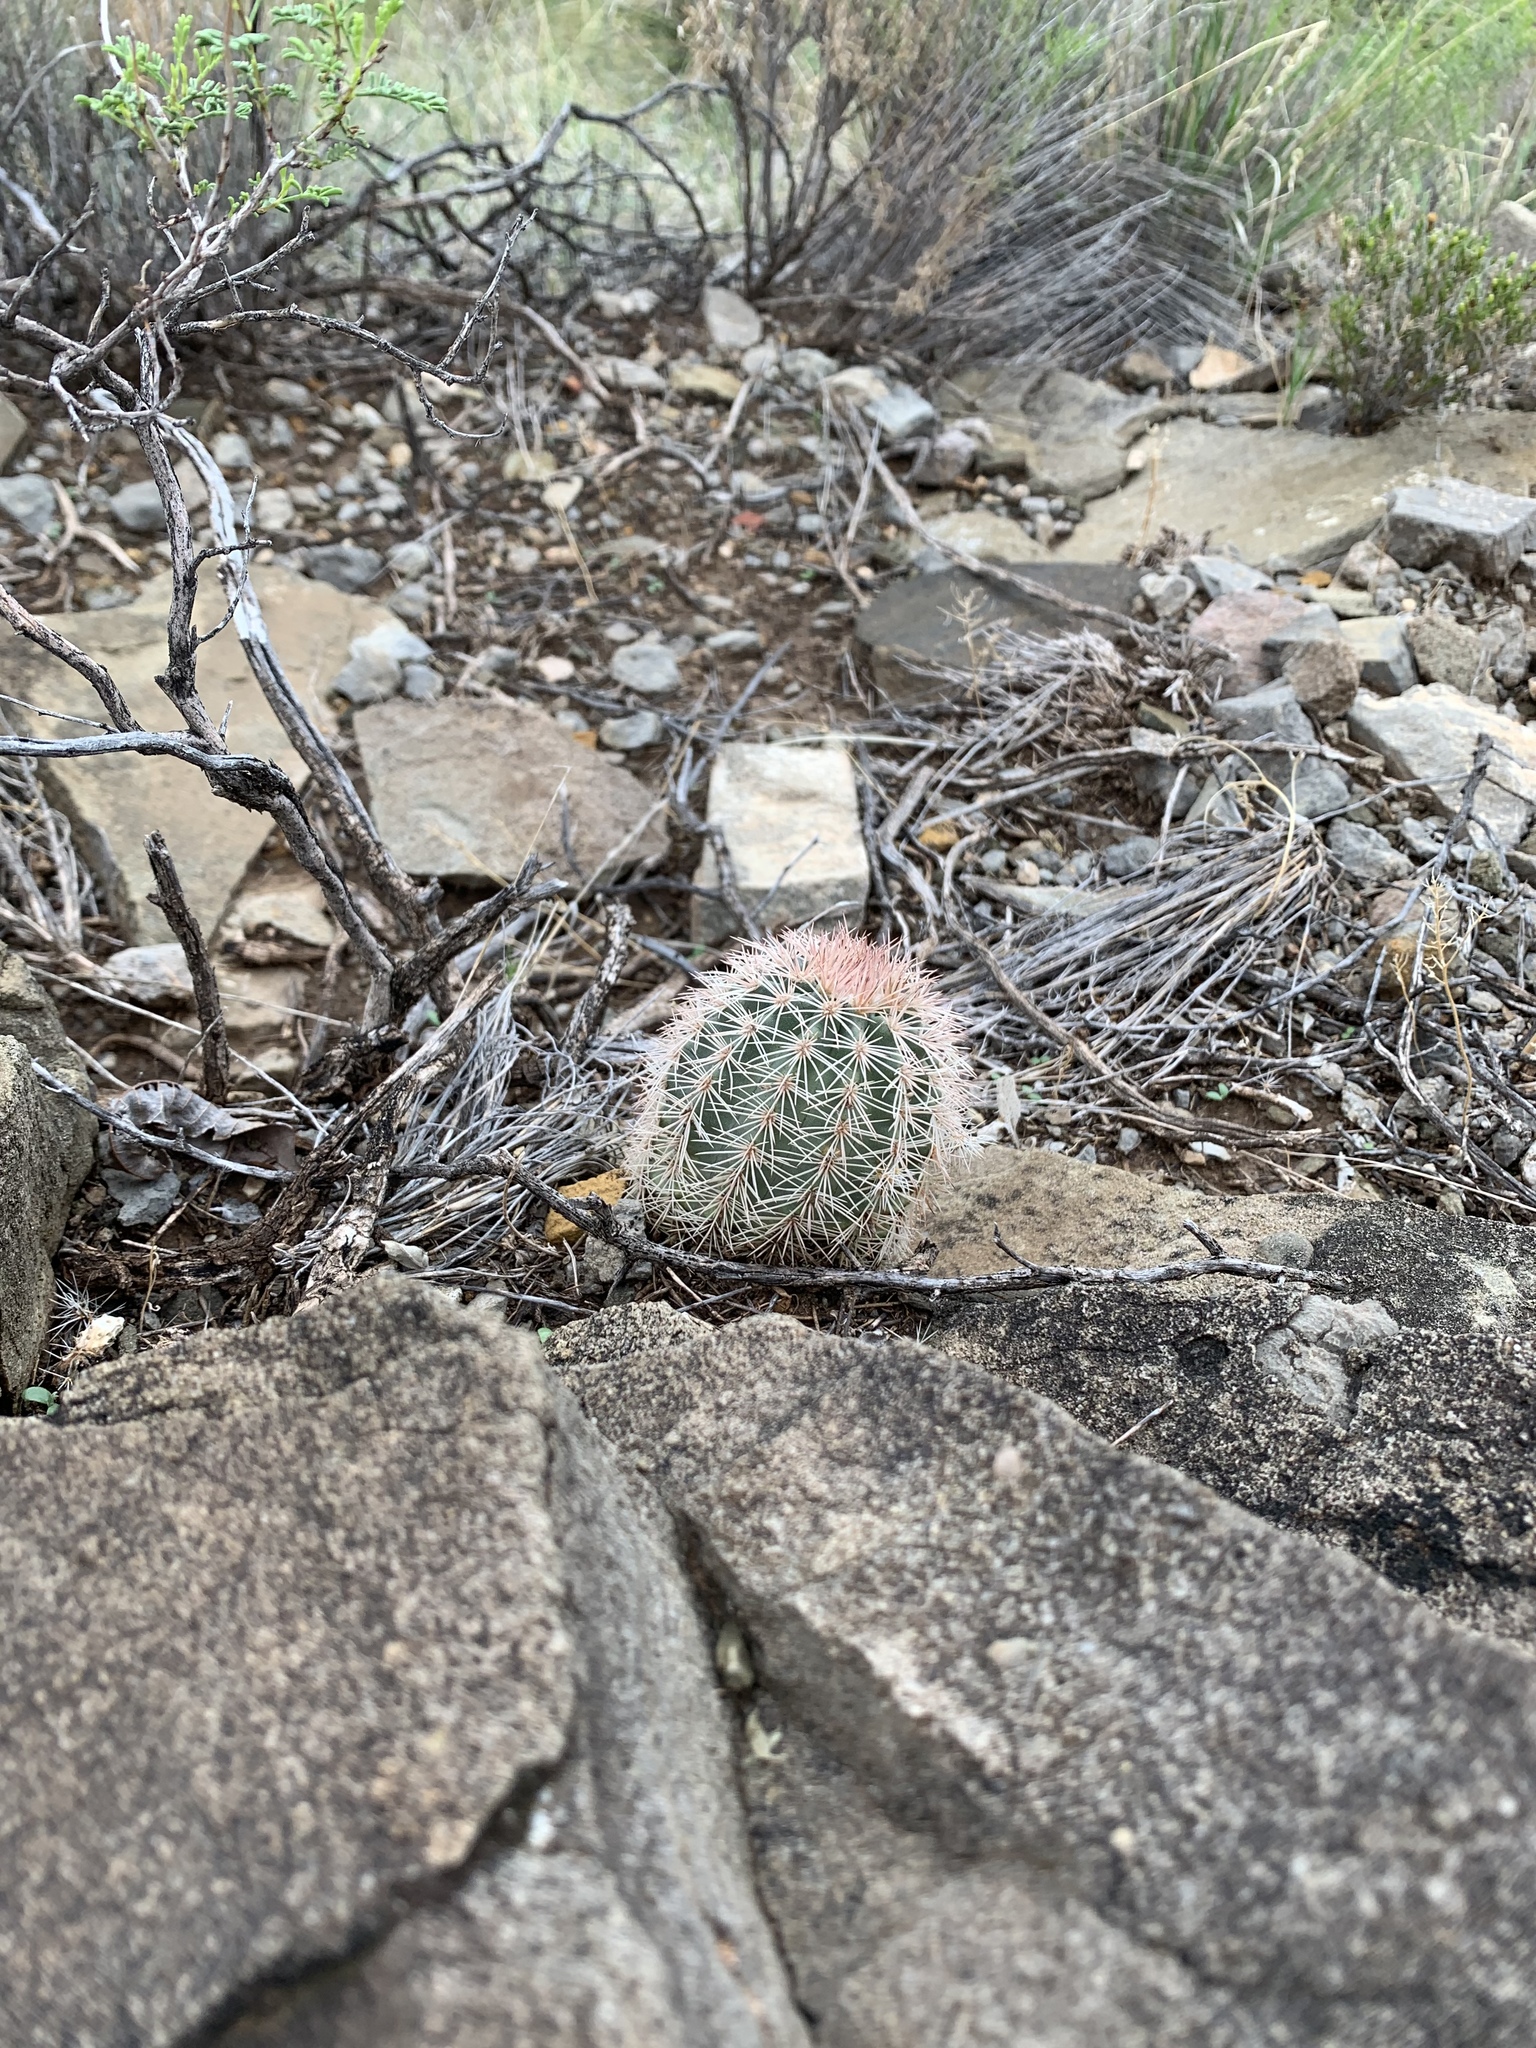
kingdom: Plantae
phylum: Tracheophyta
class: Magnoliopsida
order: Caryophyllales
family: Cactaceae
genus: Echinocereus
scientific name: Echinocereus dasyacanthus
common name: Spiny hedgehog cactus
